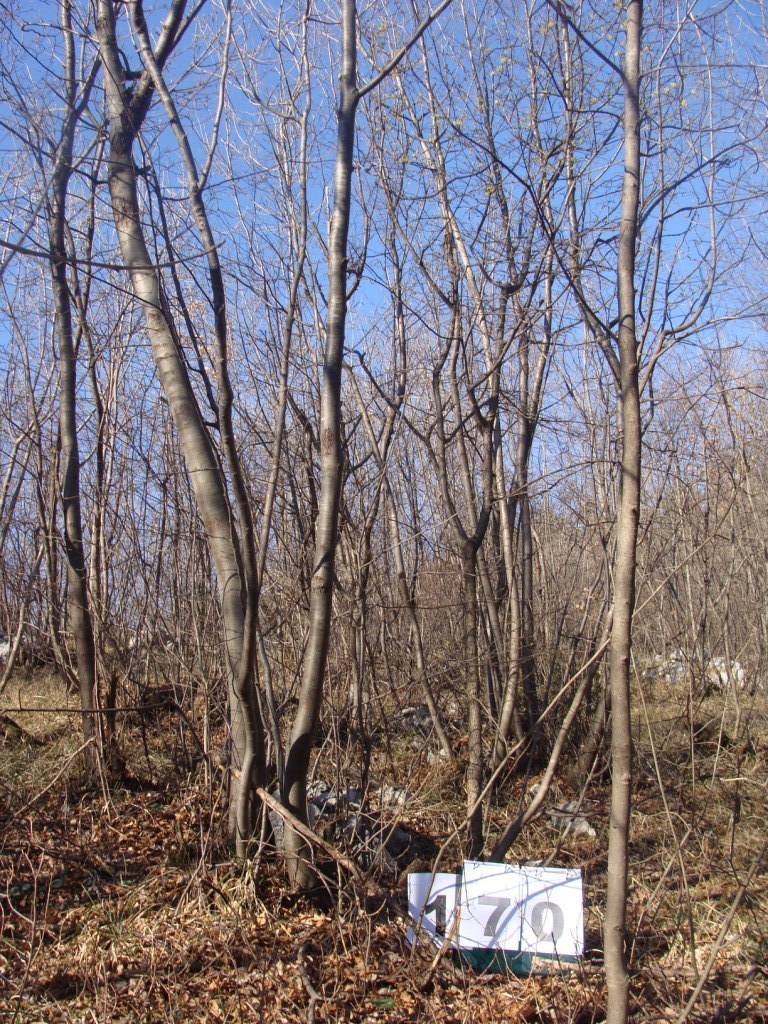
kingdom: Plantae
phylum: Tracheophyta
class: Magnoliopsida
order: Cornales
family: Cornaceae
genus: Cornus
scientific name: Cornus mas
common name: Cornelian-cherry
